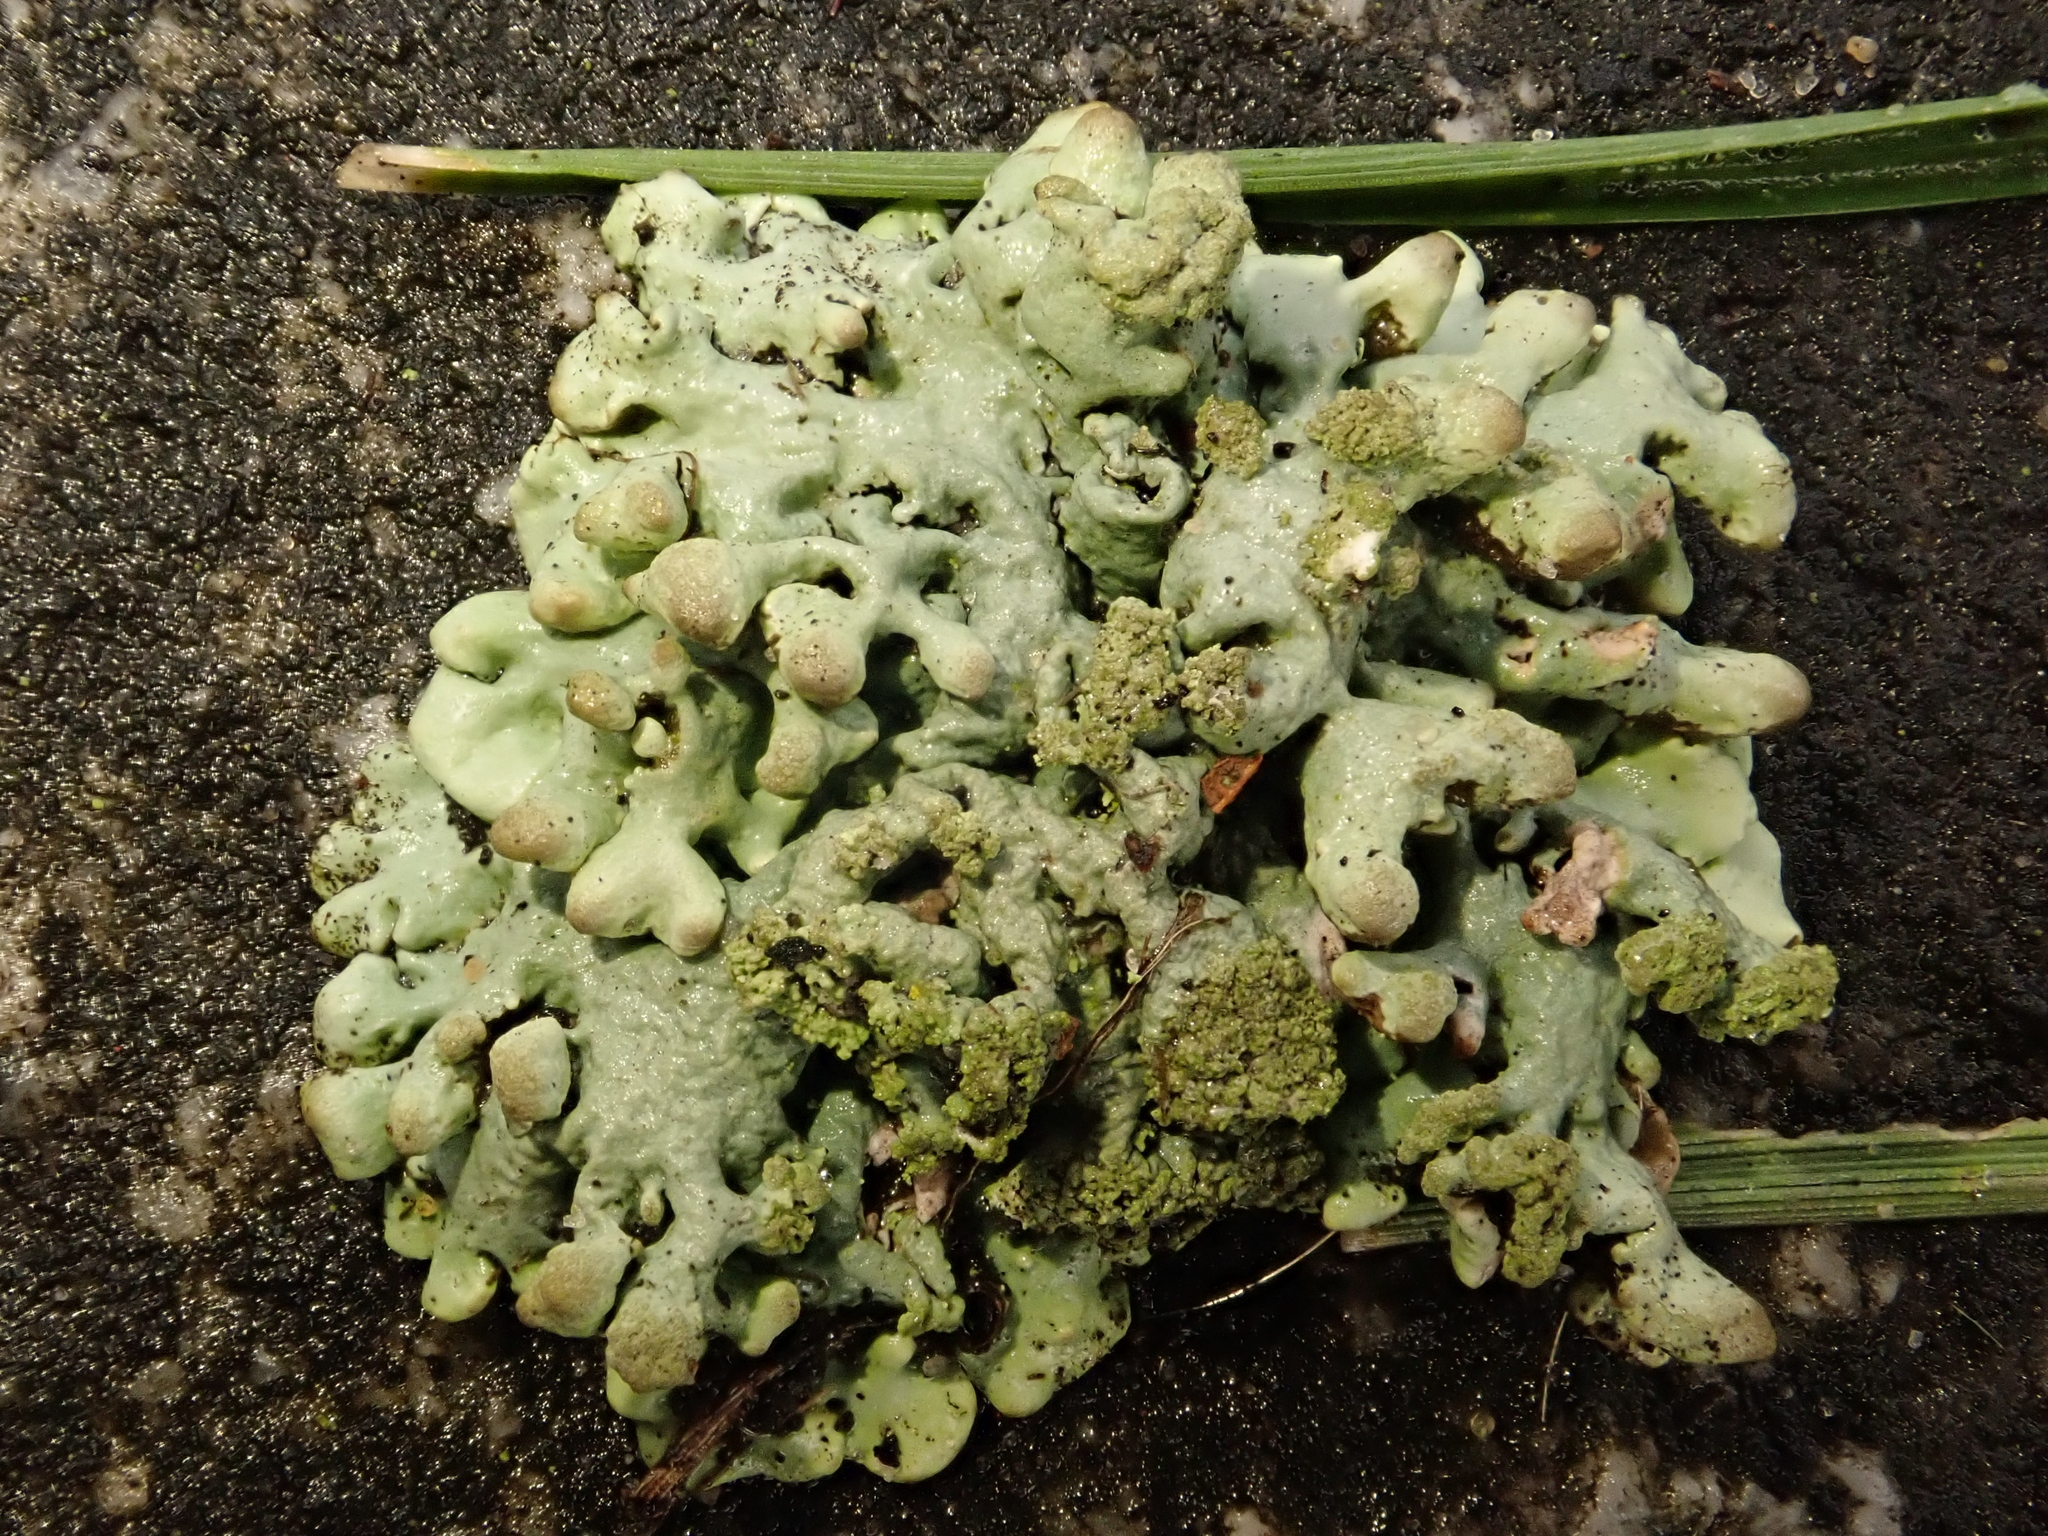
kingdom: Fungi
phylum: Ascomycota
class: Lecanoromycetes
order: Lecanorales
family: Parmeliaceae
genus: Hypogymnia
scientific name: Hypogymnia tubulosa
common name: Powder-headed tube lichen
